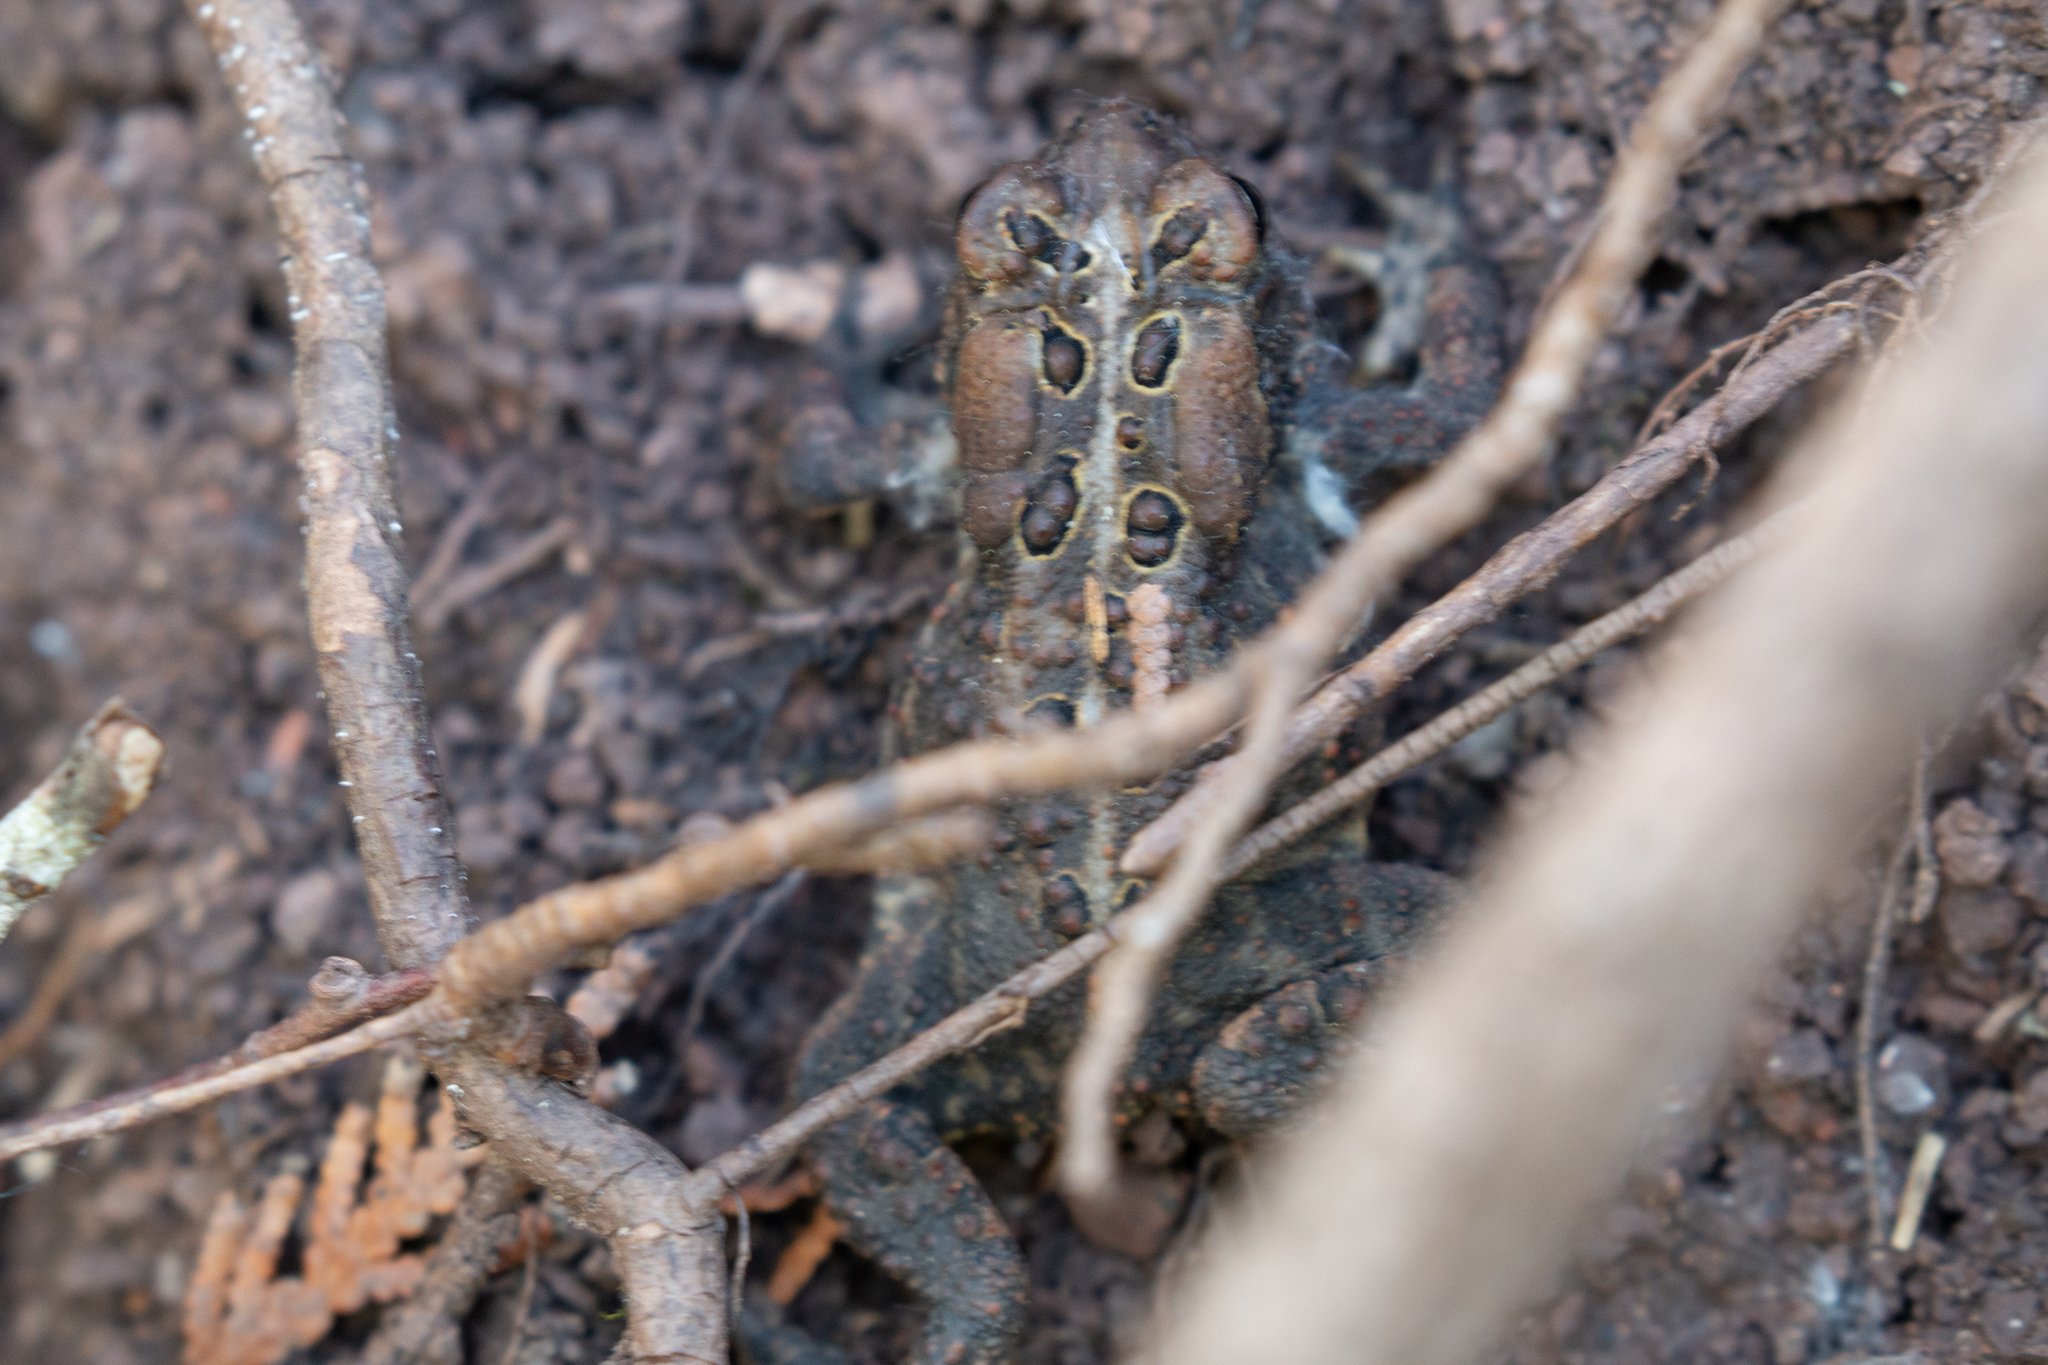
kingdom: Animalia
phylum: Chordata
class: Amphibia
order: Anura
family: Bufonidae
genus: Anaxyrus
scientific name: Anaxyrus americanus
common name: American toad
